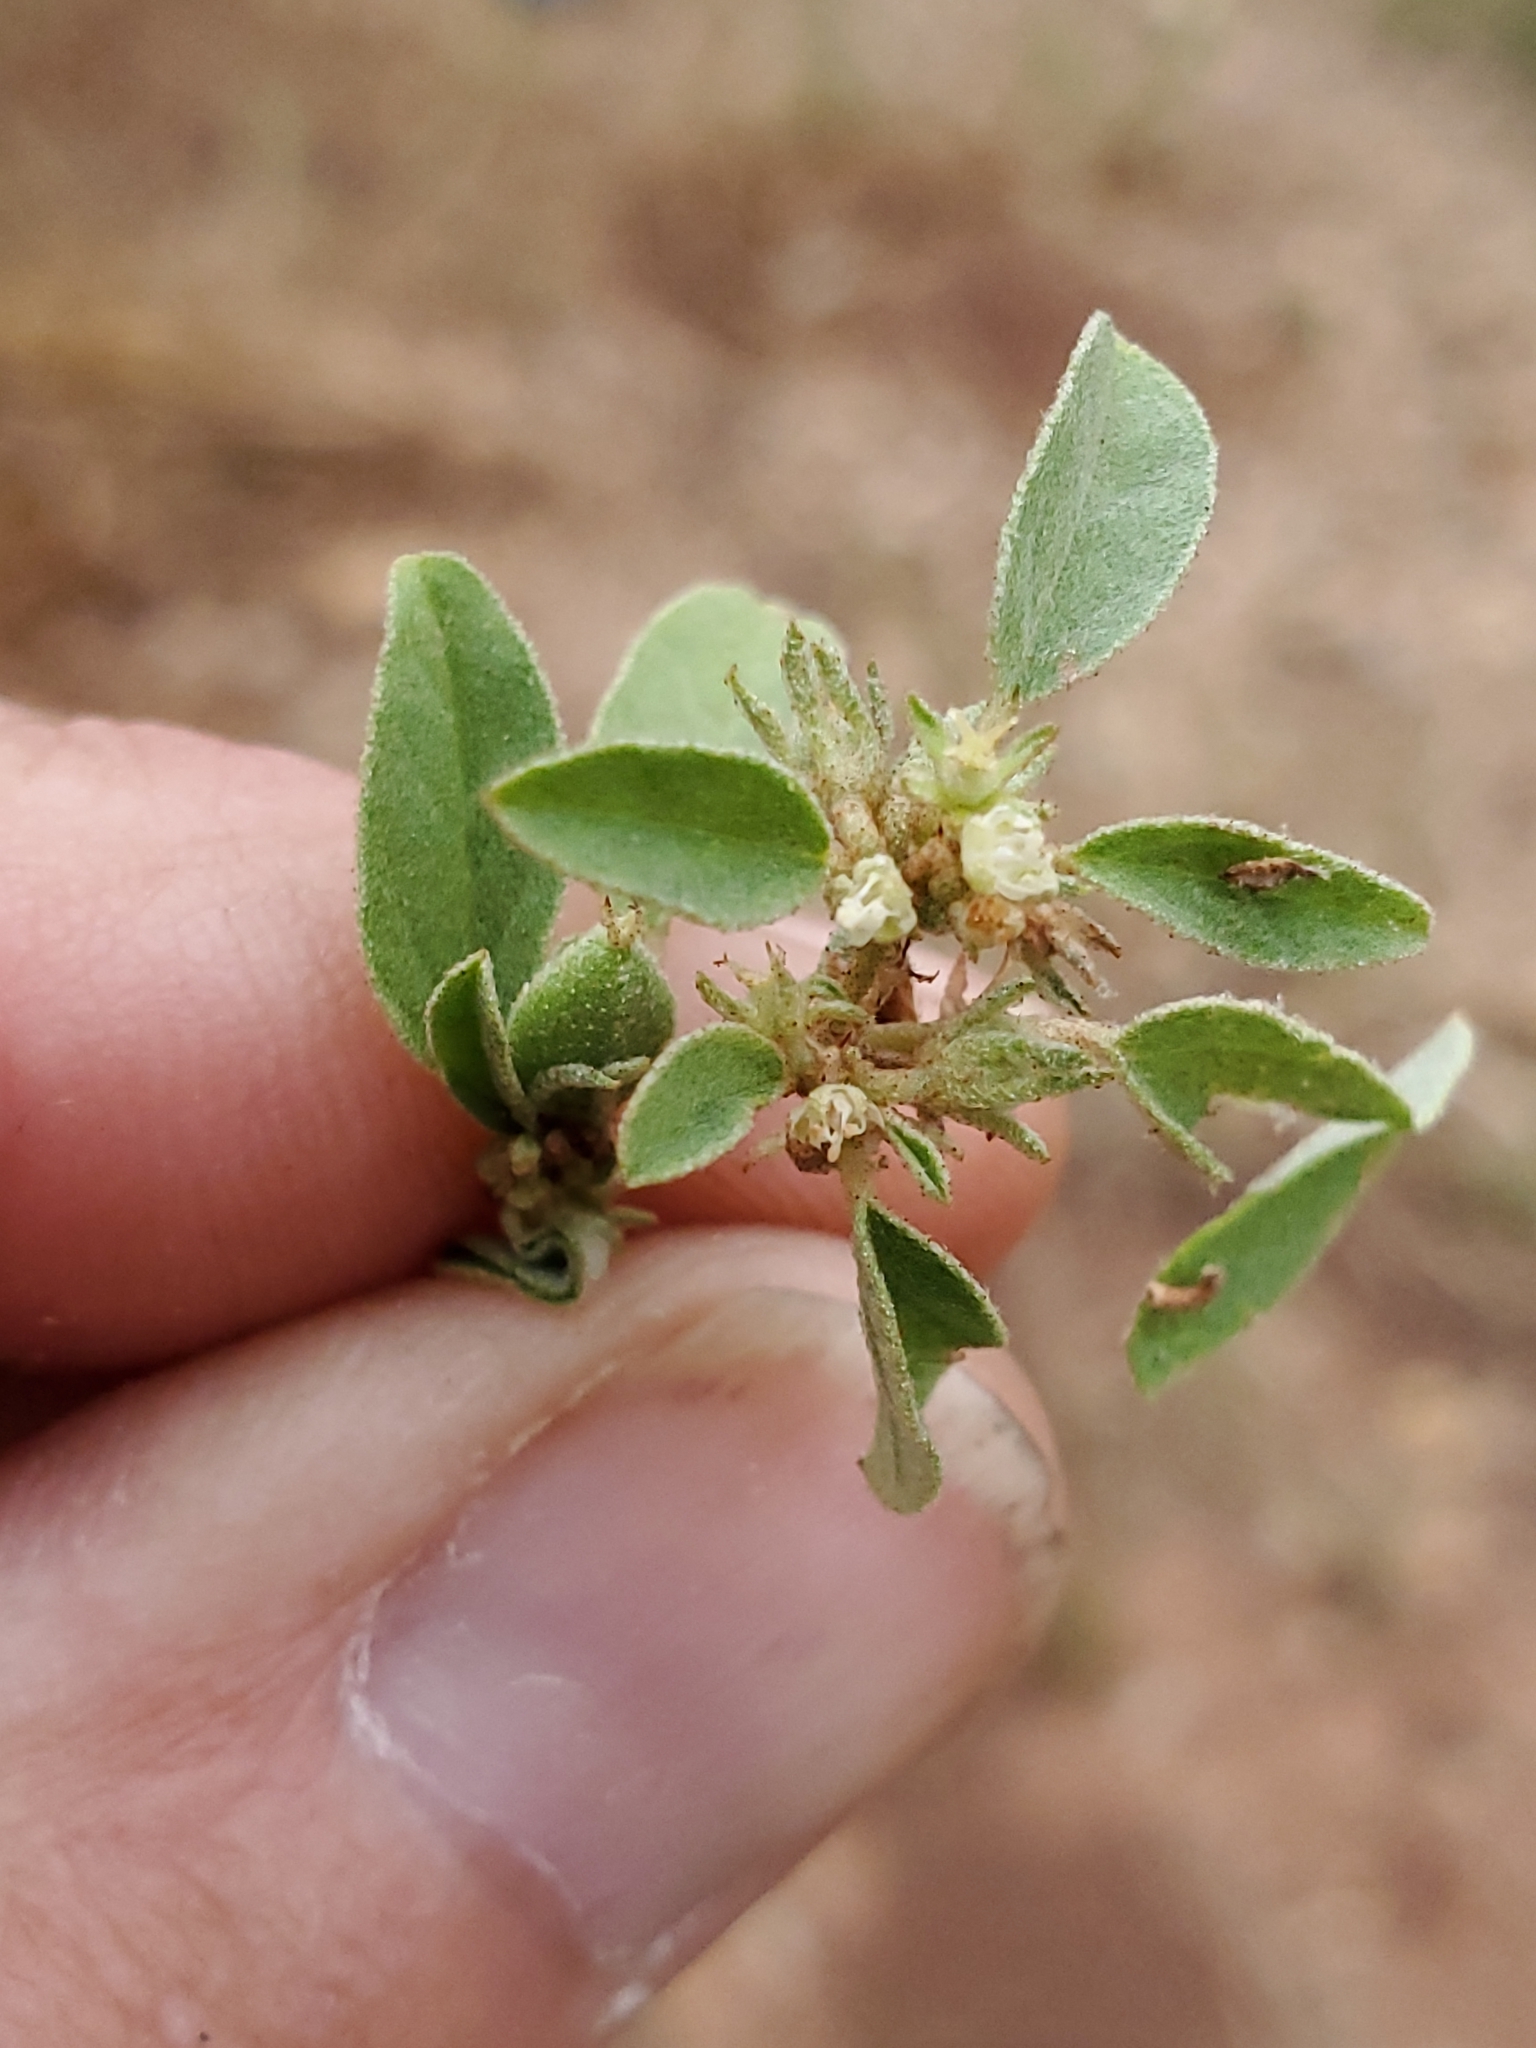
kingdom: Plantae
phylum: Tracheophyta
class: Magnoliopsida
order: Malpighiales
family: Euphorbiaceae
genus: Croton
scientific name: Croton monanthogynus
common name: One-seed croton
